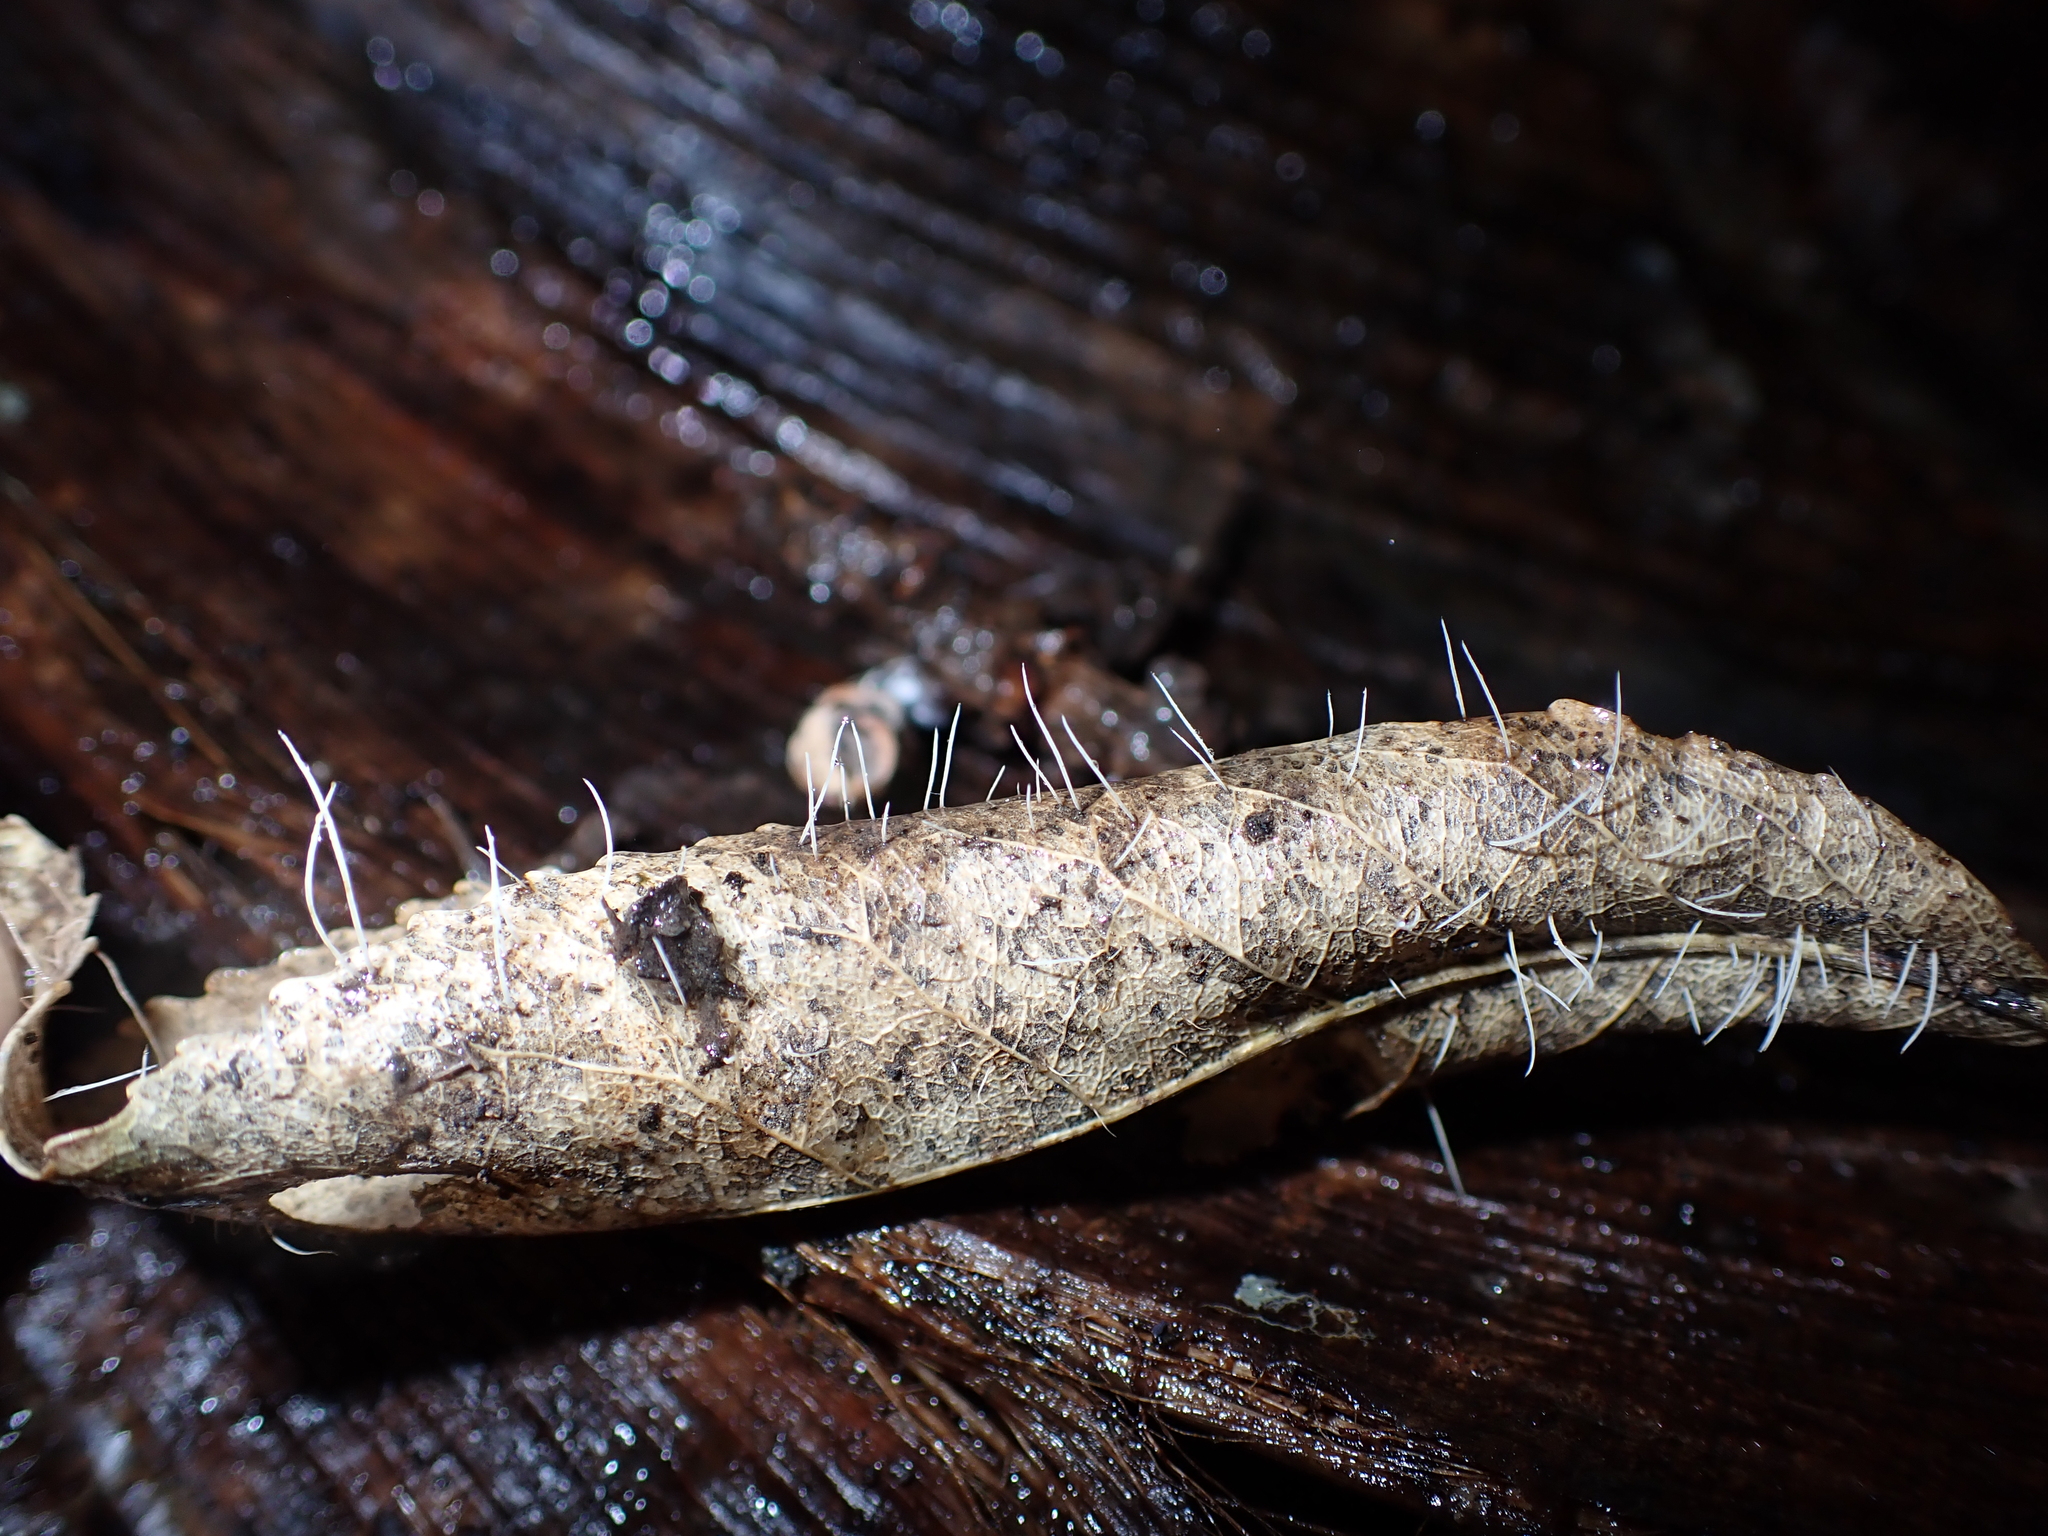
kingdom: Fungi
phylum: Basidiomycota
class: Agaricomycetes
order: Agaricales
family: Typhulaceae
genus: Typhula
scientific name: Typhula
